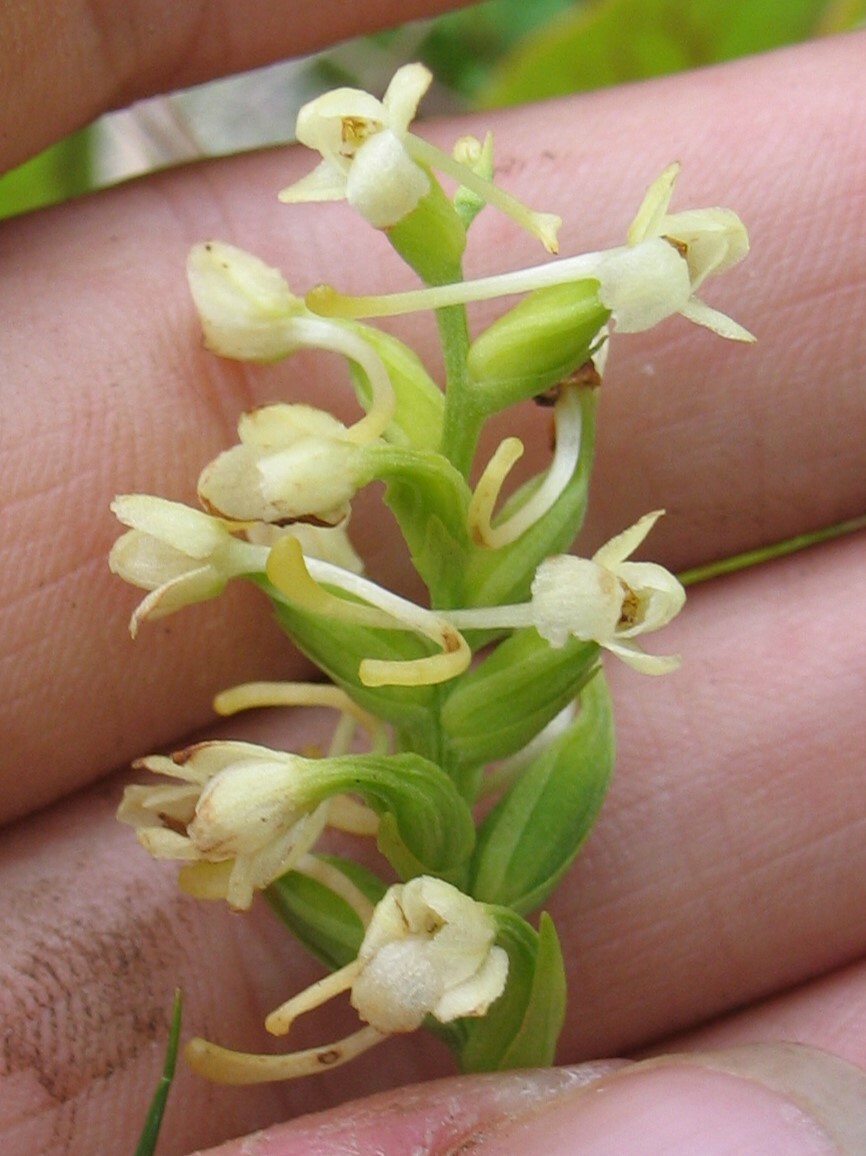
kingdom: Plantae
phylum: Tracheophyta
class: Liliopsida
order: Asparagales
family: Orchidaceae
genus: Platanthera
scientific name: Platanthera clavellata
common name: Club-spur orchid
